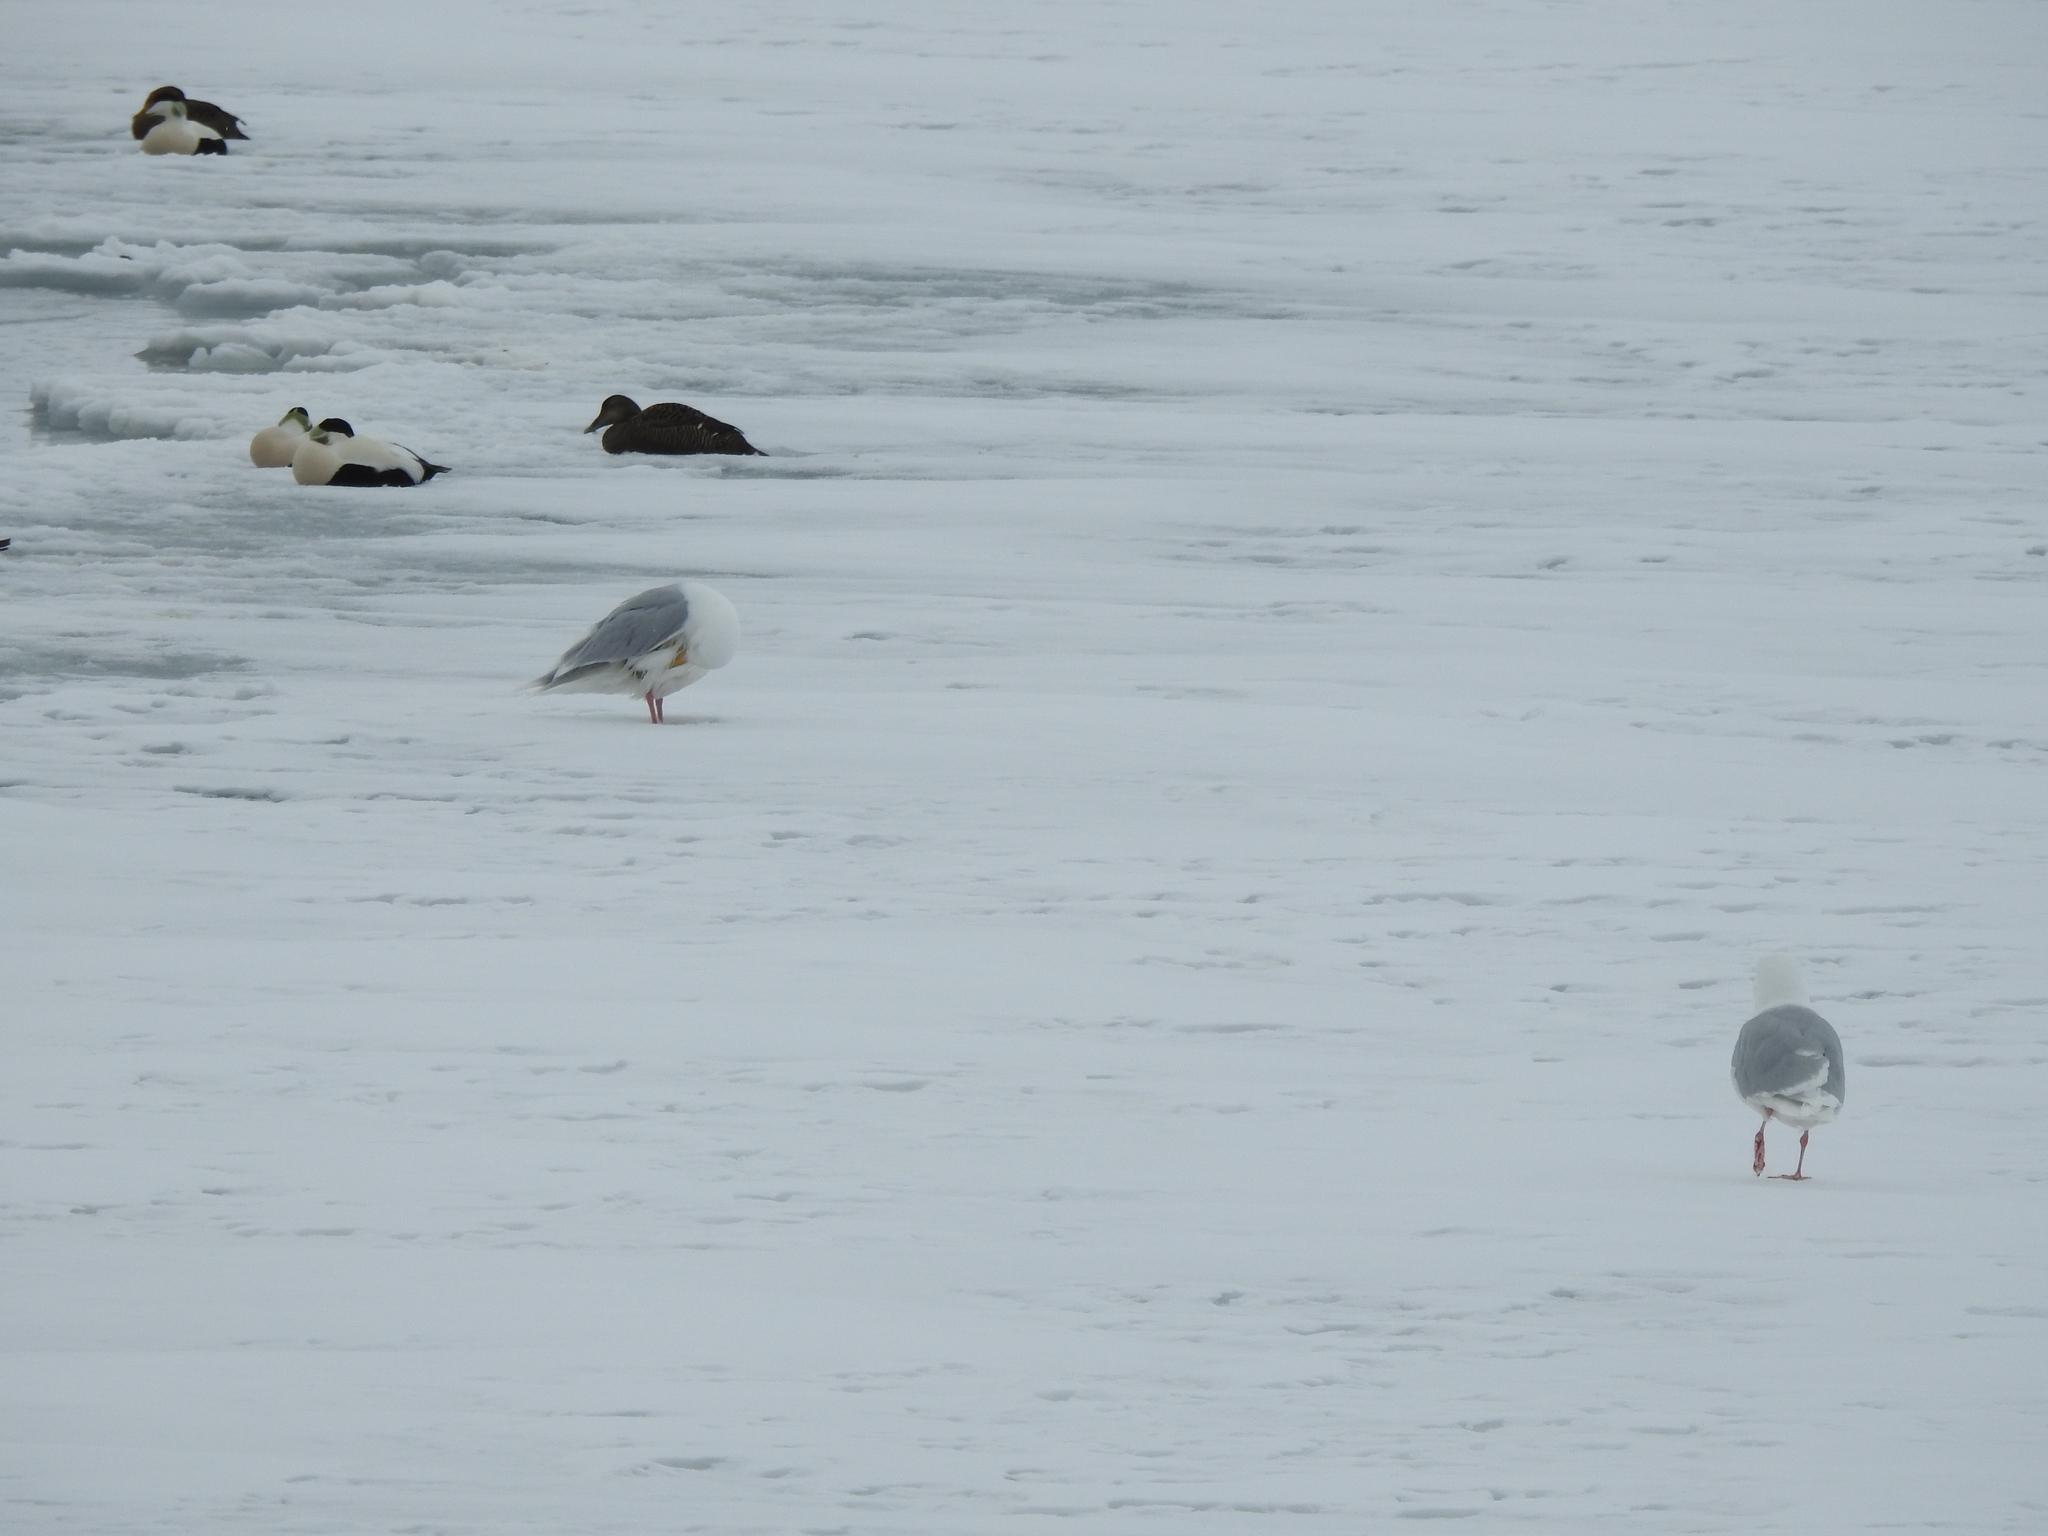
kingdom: Animalia
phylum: Chordata
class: Aves
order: Charadriiformes
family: Laridae
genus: Larus
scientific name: Larus hyperboreus
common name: Glaucous gull
